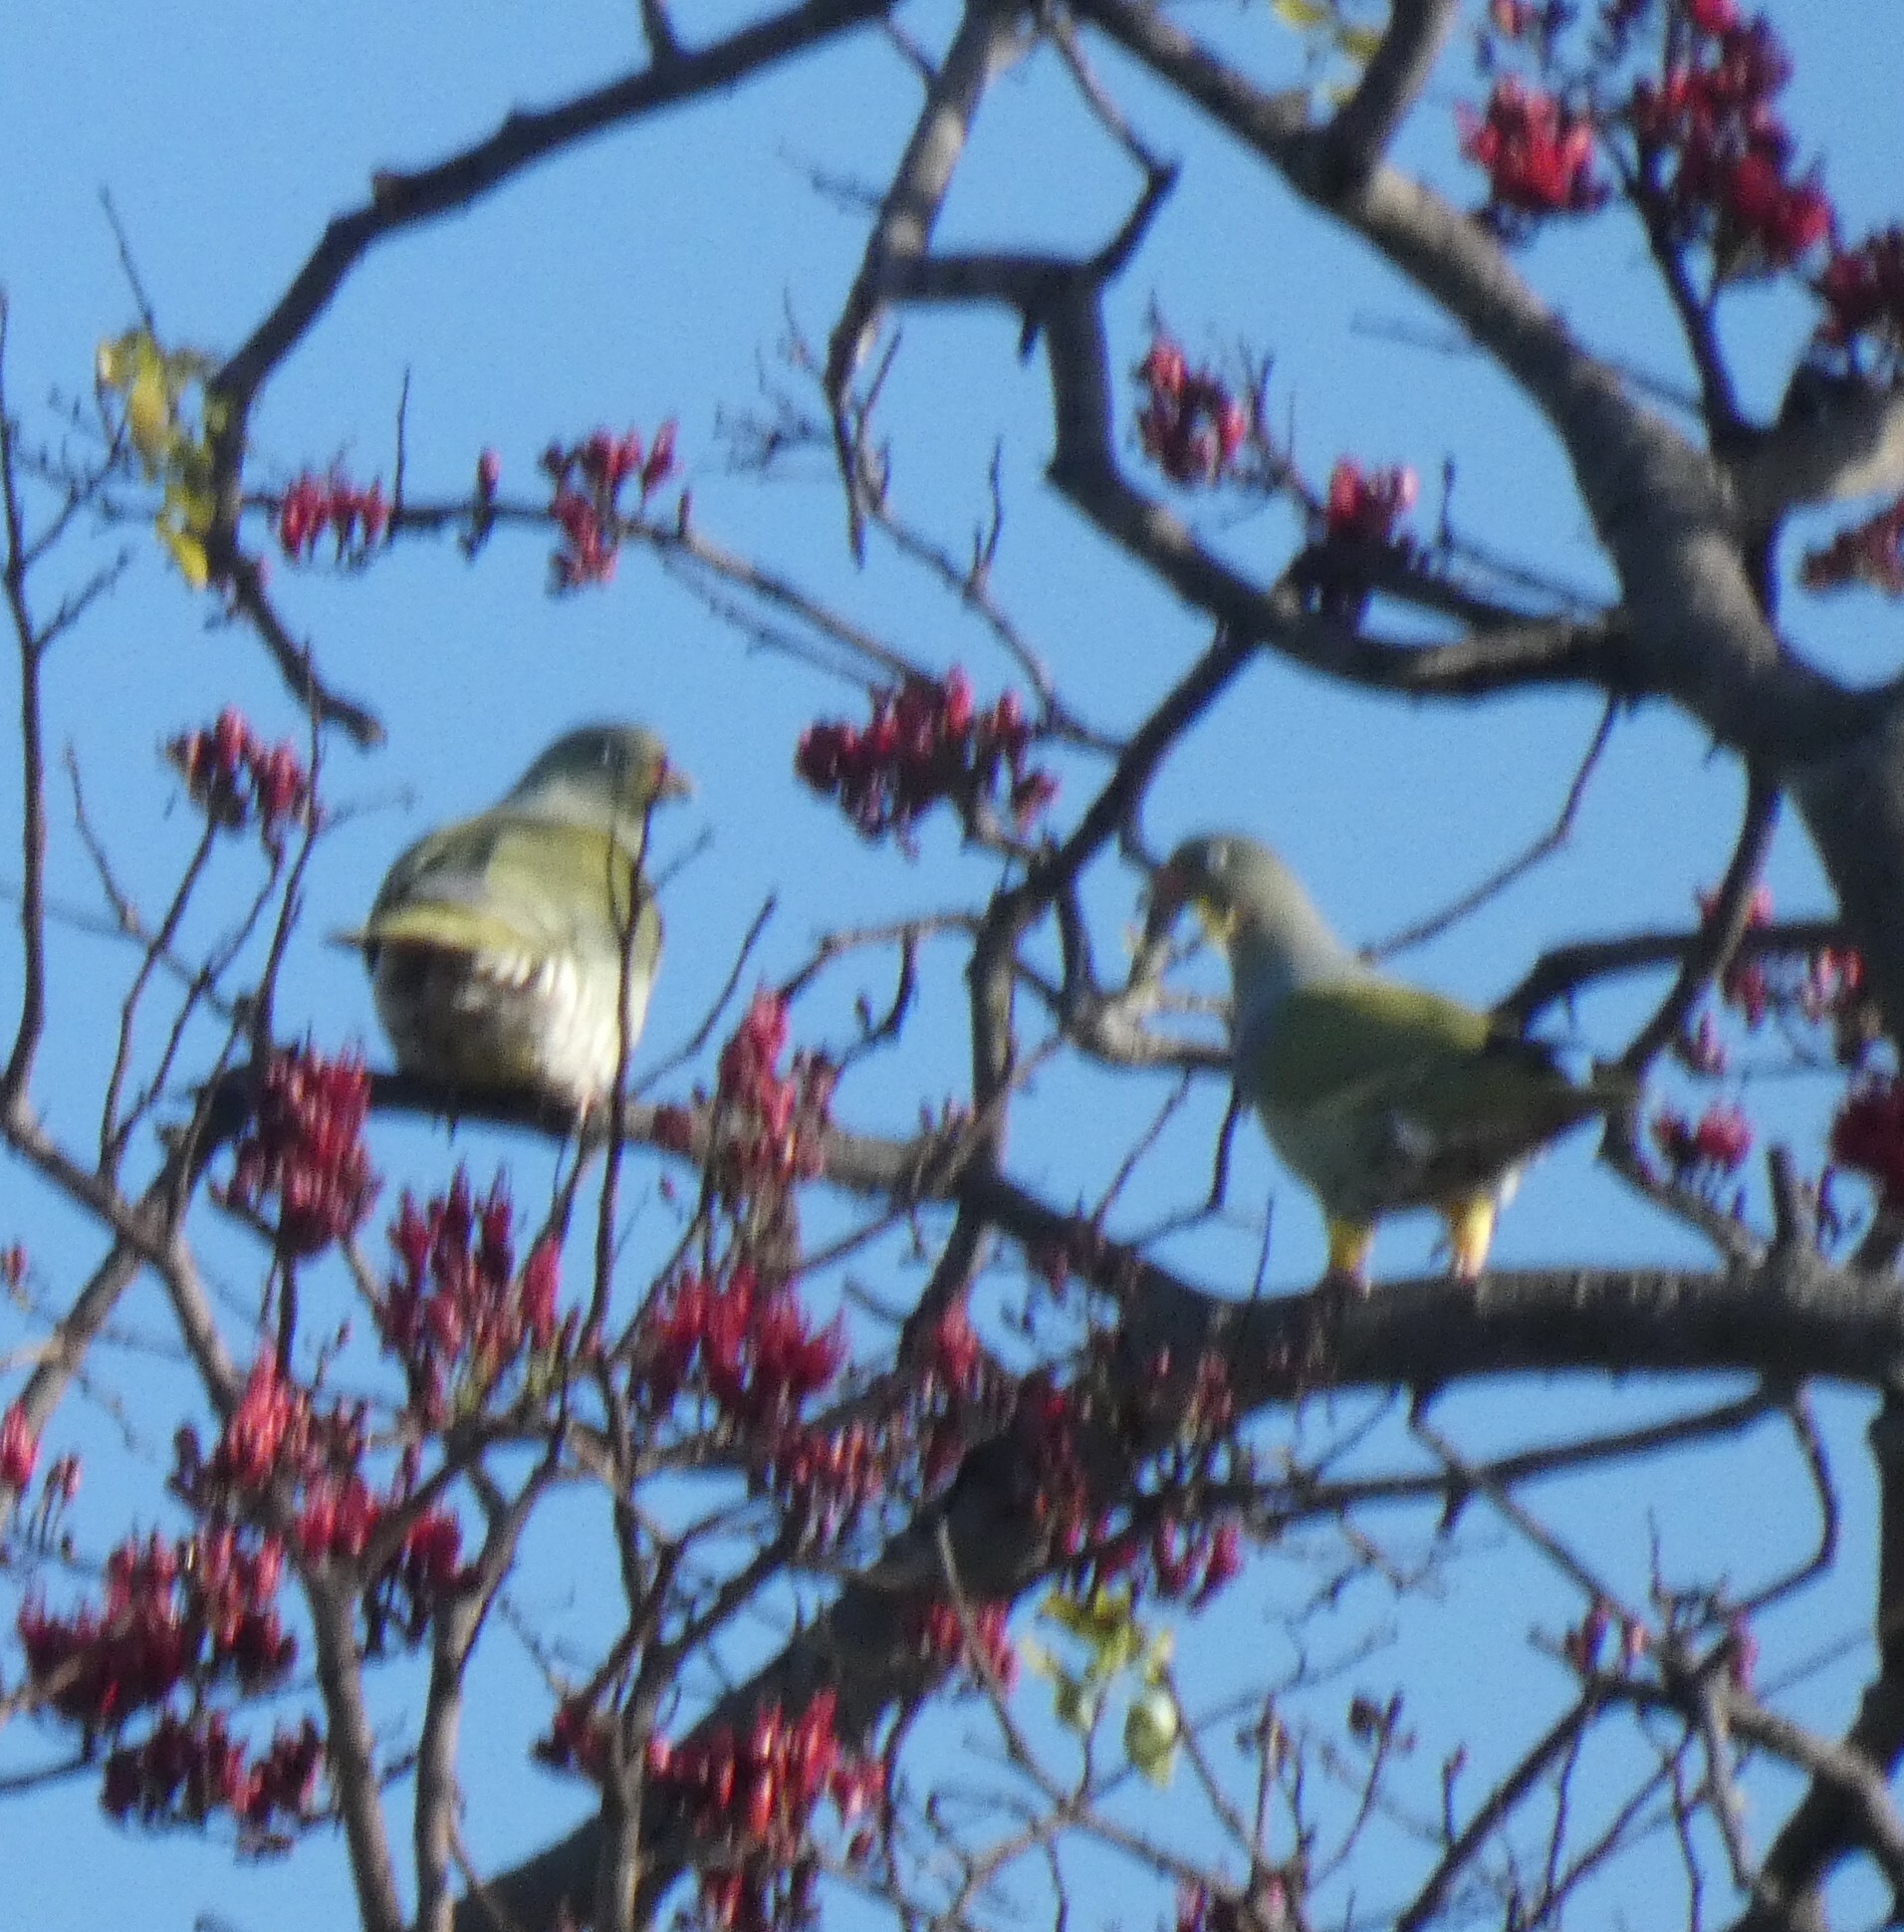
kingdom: Animalia
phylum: Chordata
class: Aves
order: Columbiformes
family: Columbidae
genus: Treron
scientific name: Treron calvus
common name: African green pigeon
